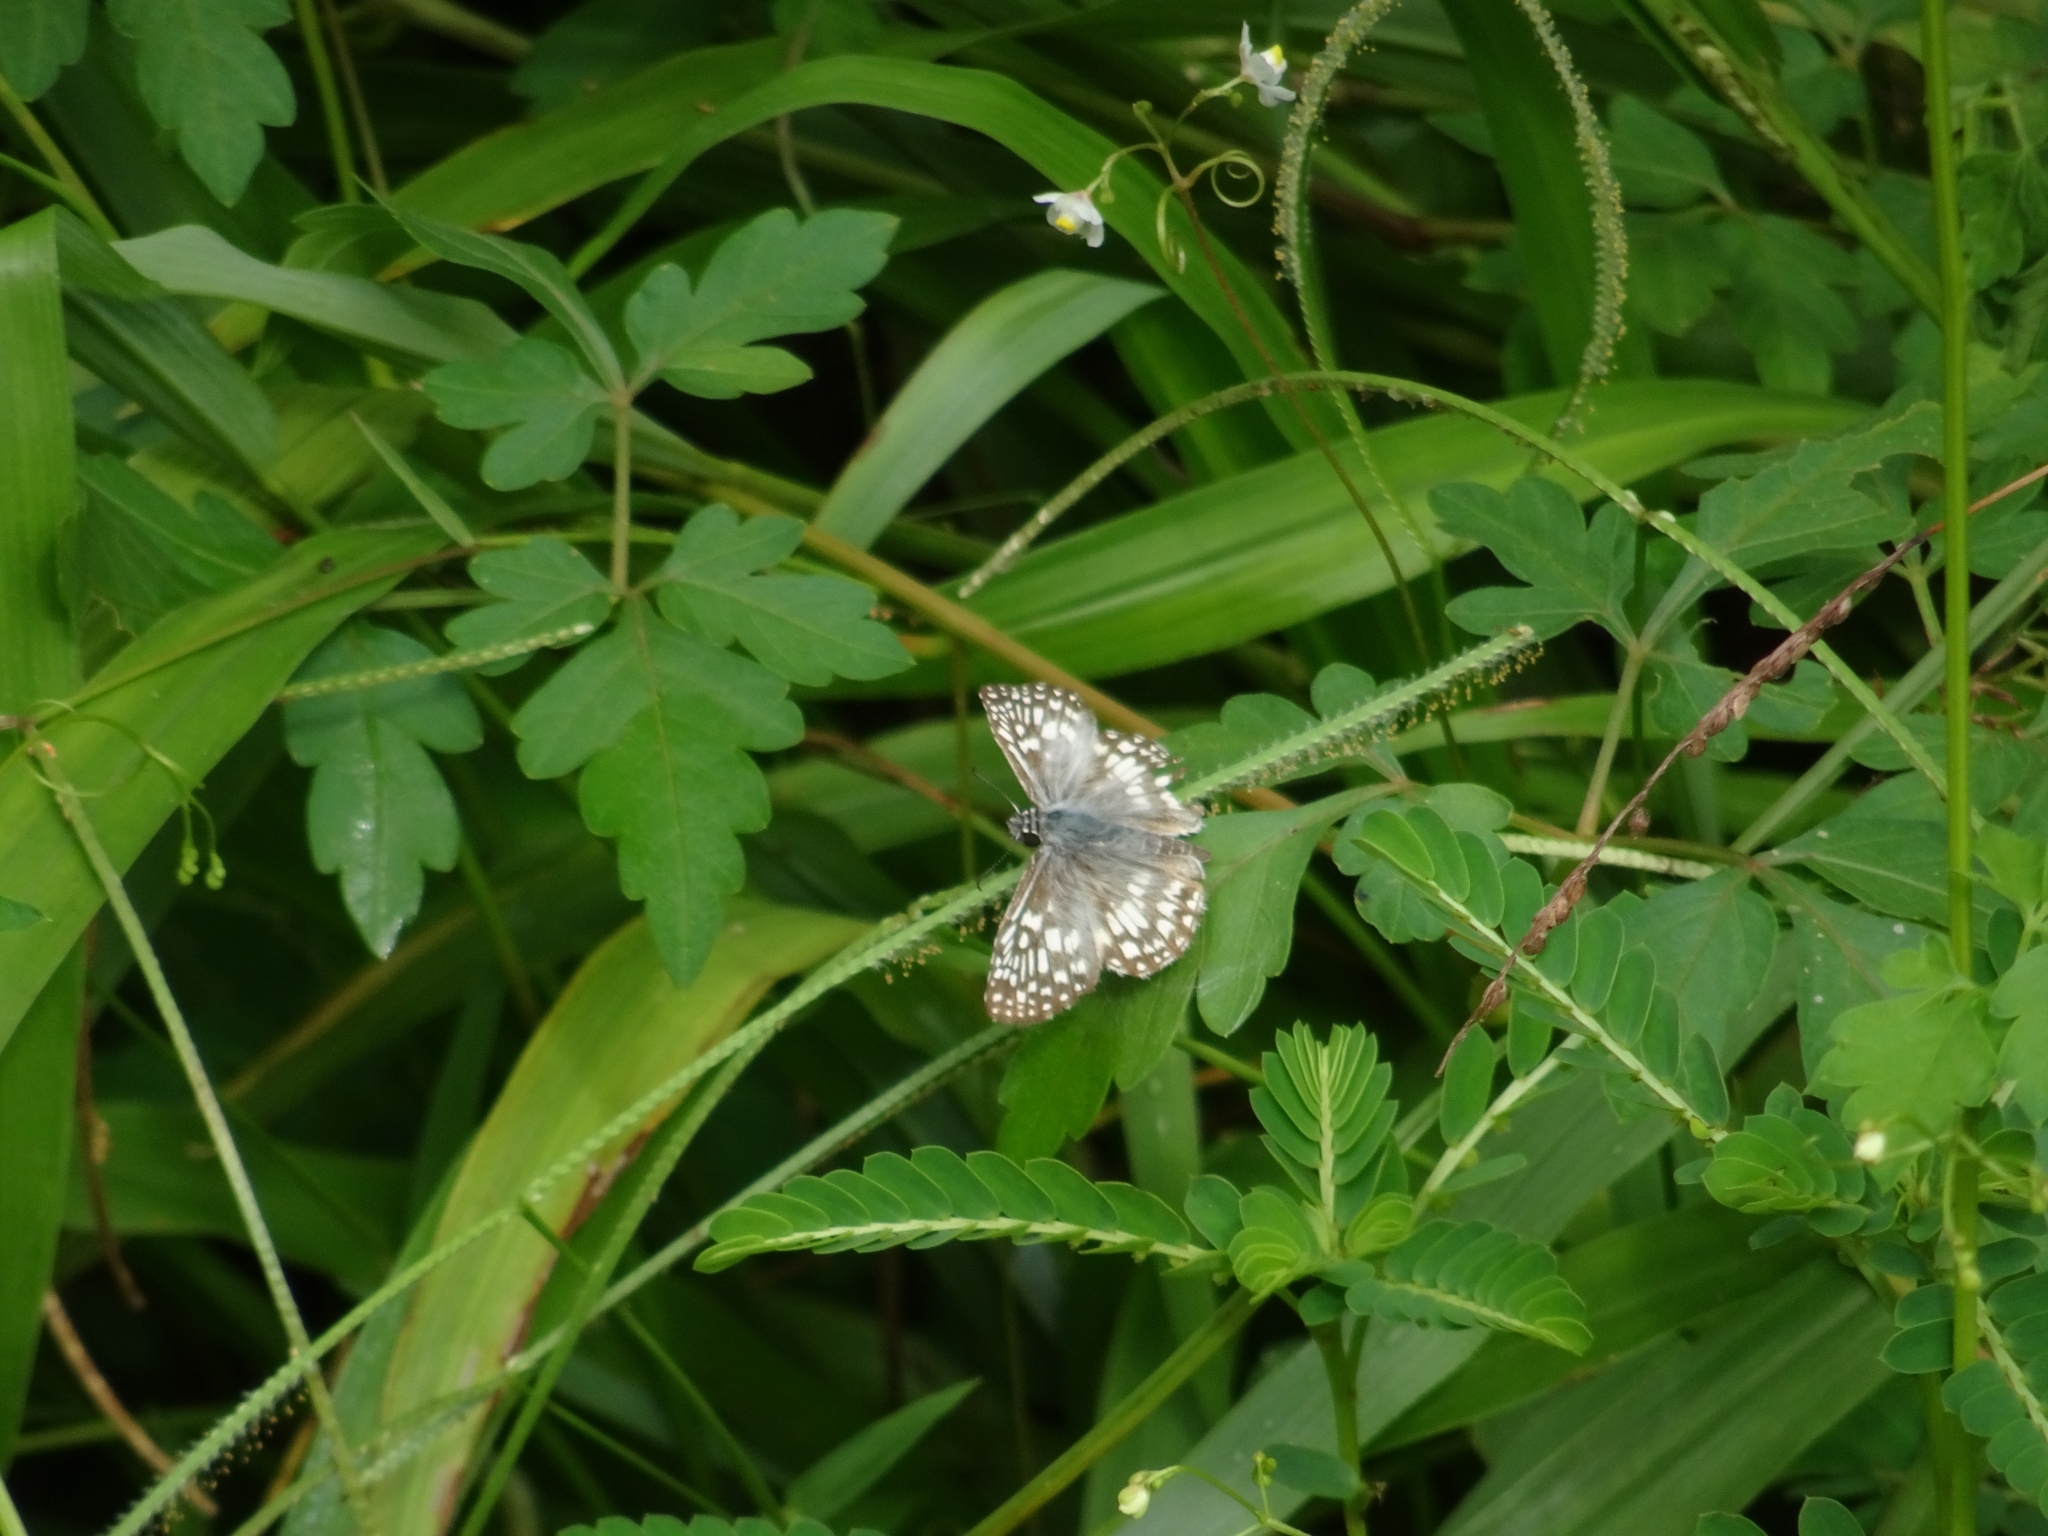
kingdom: Animalia
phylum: Arthropoda
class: Insecta
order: Lepidoptera
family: Hesperiidae
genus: Pyrgus
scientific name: Pyrgus oileus
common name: Tropical checkered-skipper
